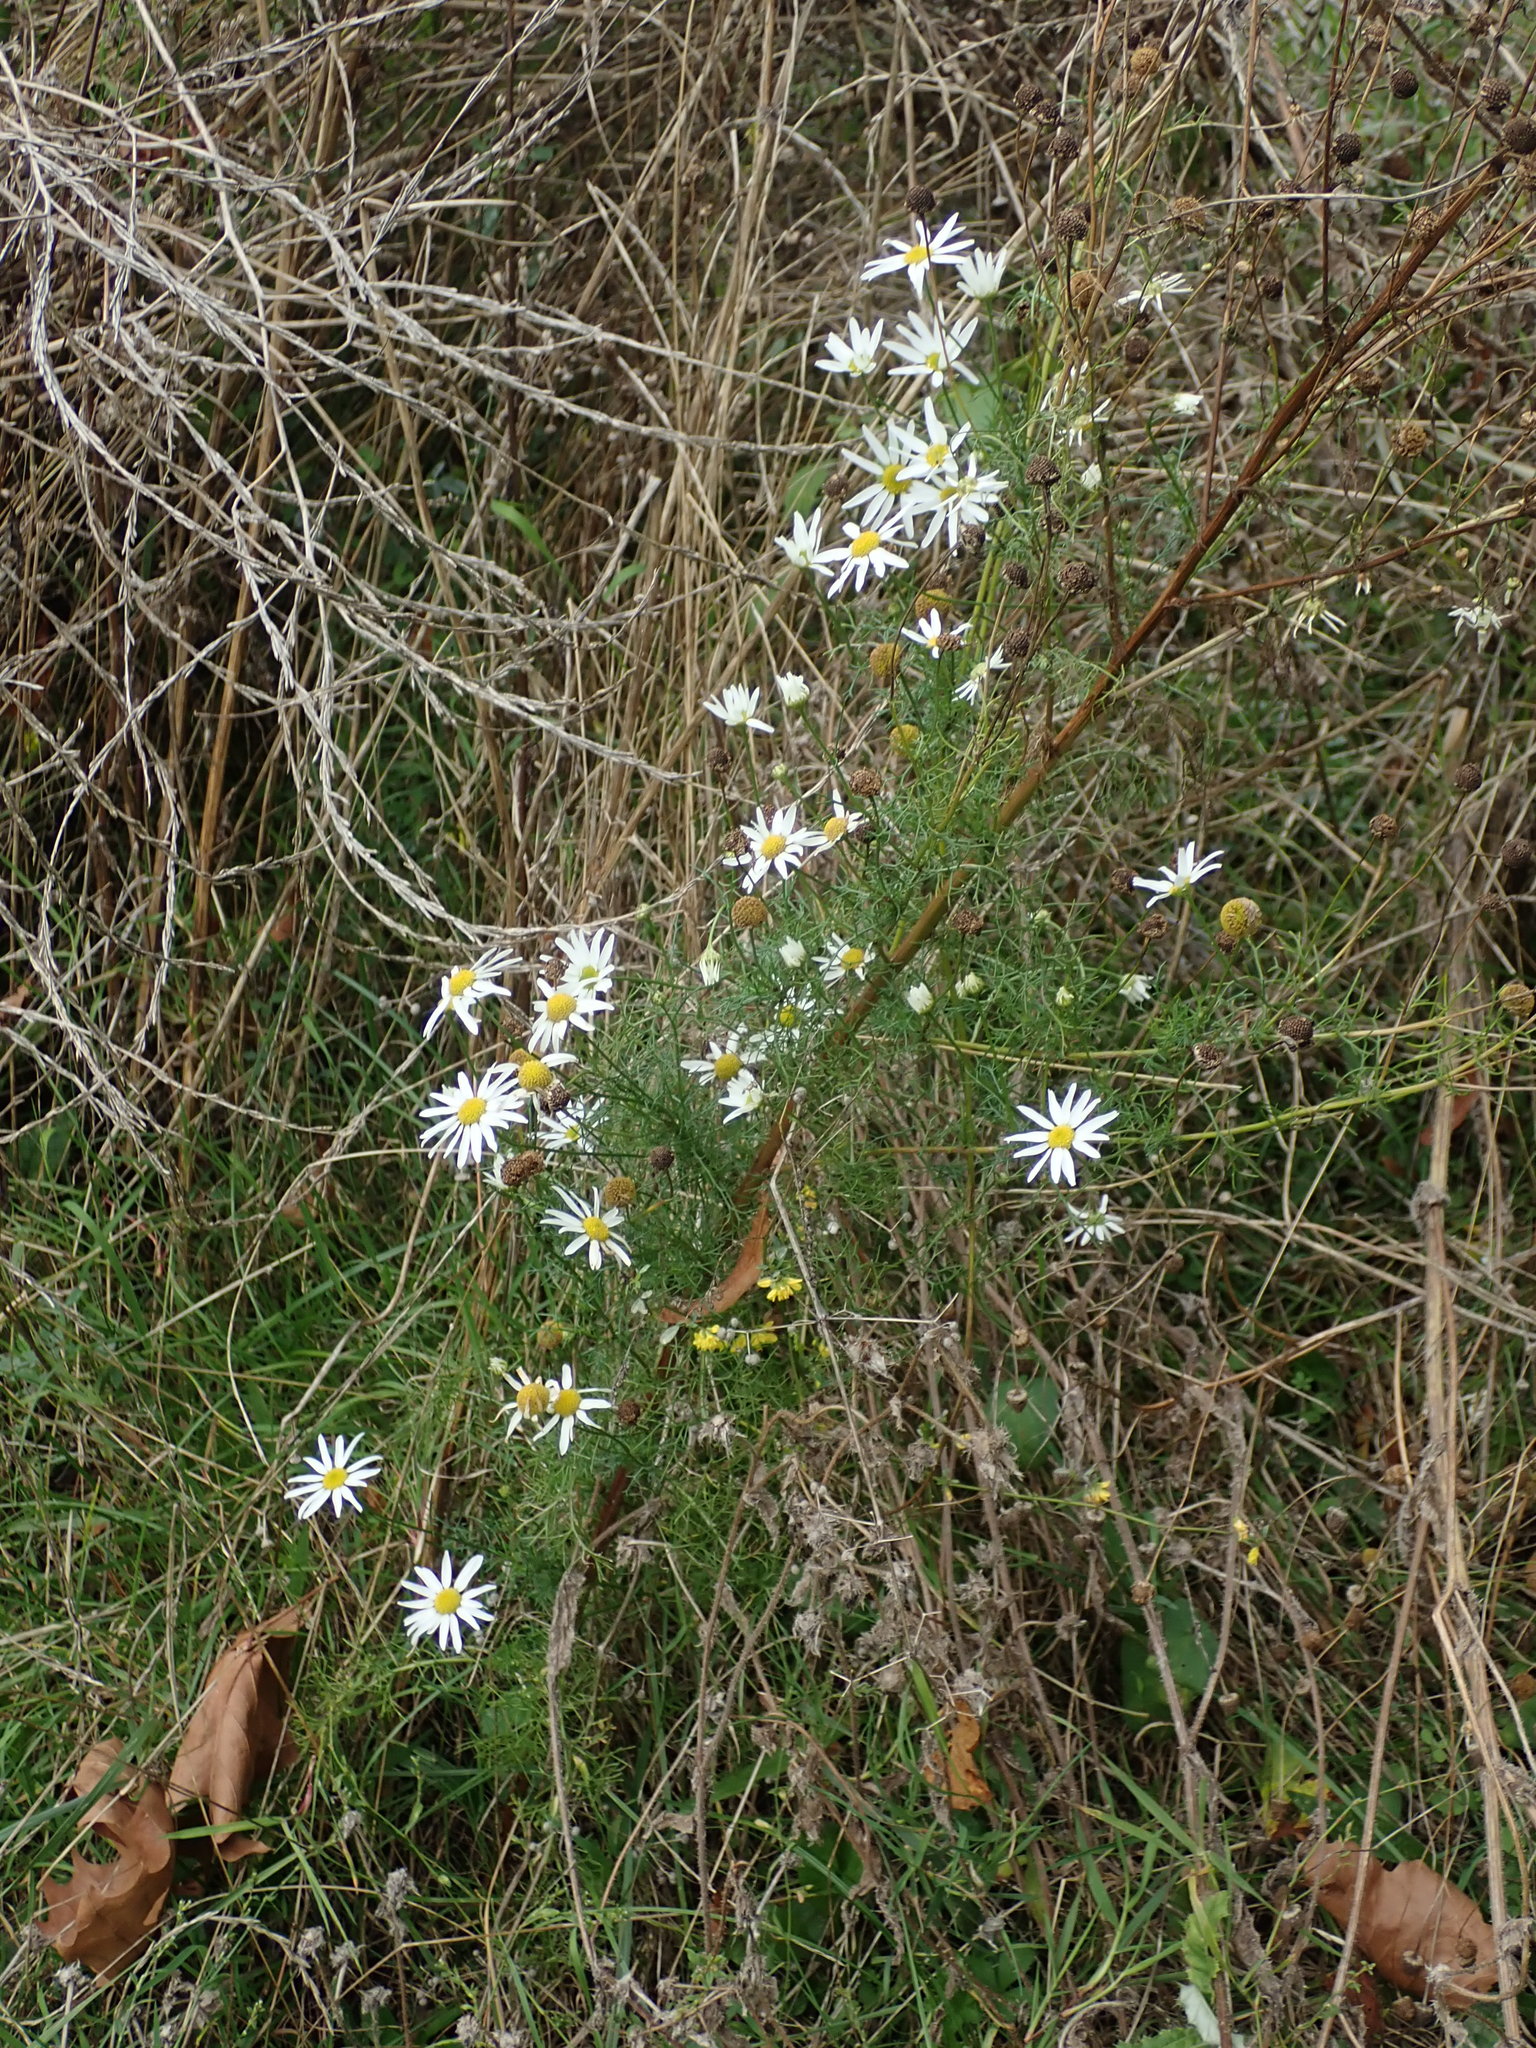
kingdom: Plantae
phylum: Tracheophyta
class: Magnoliopsida
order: Asterales
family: Asteraceae
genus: Tripleurospermum
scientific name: Tripleurospermum inodorum
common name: Scentless mayweed
